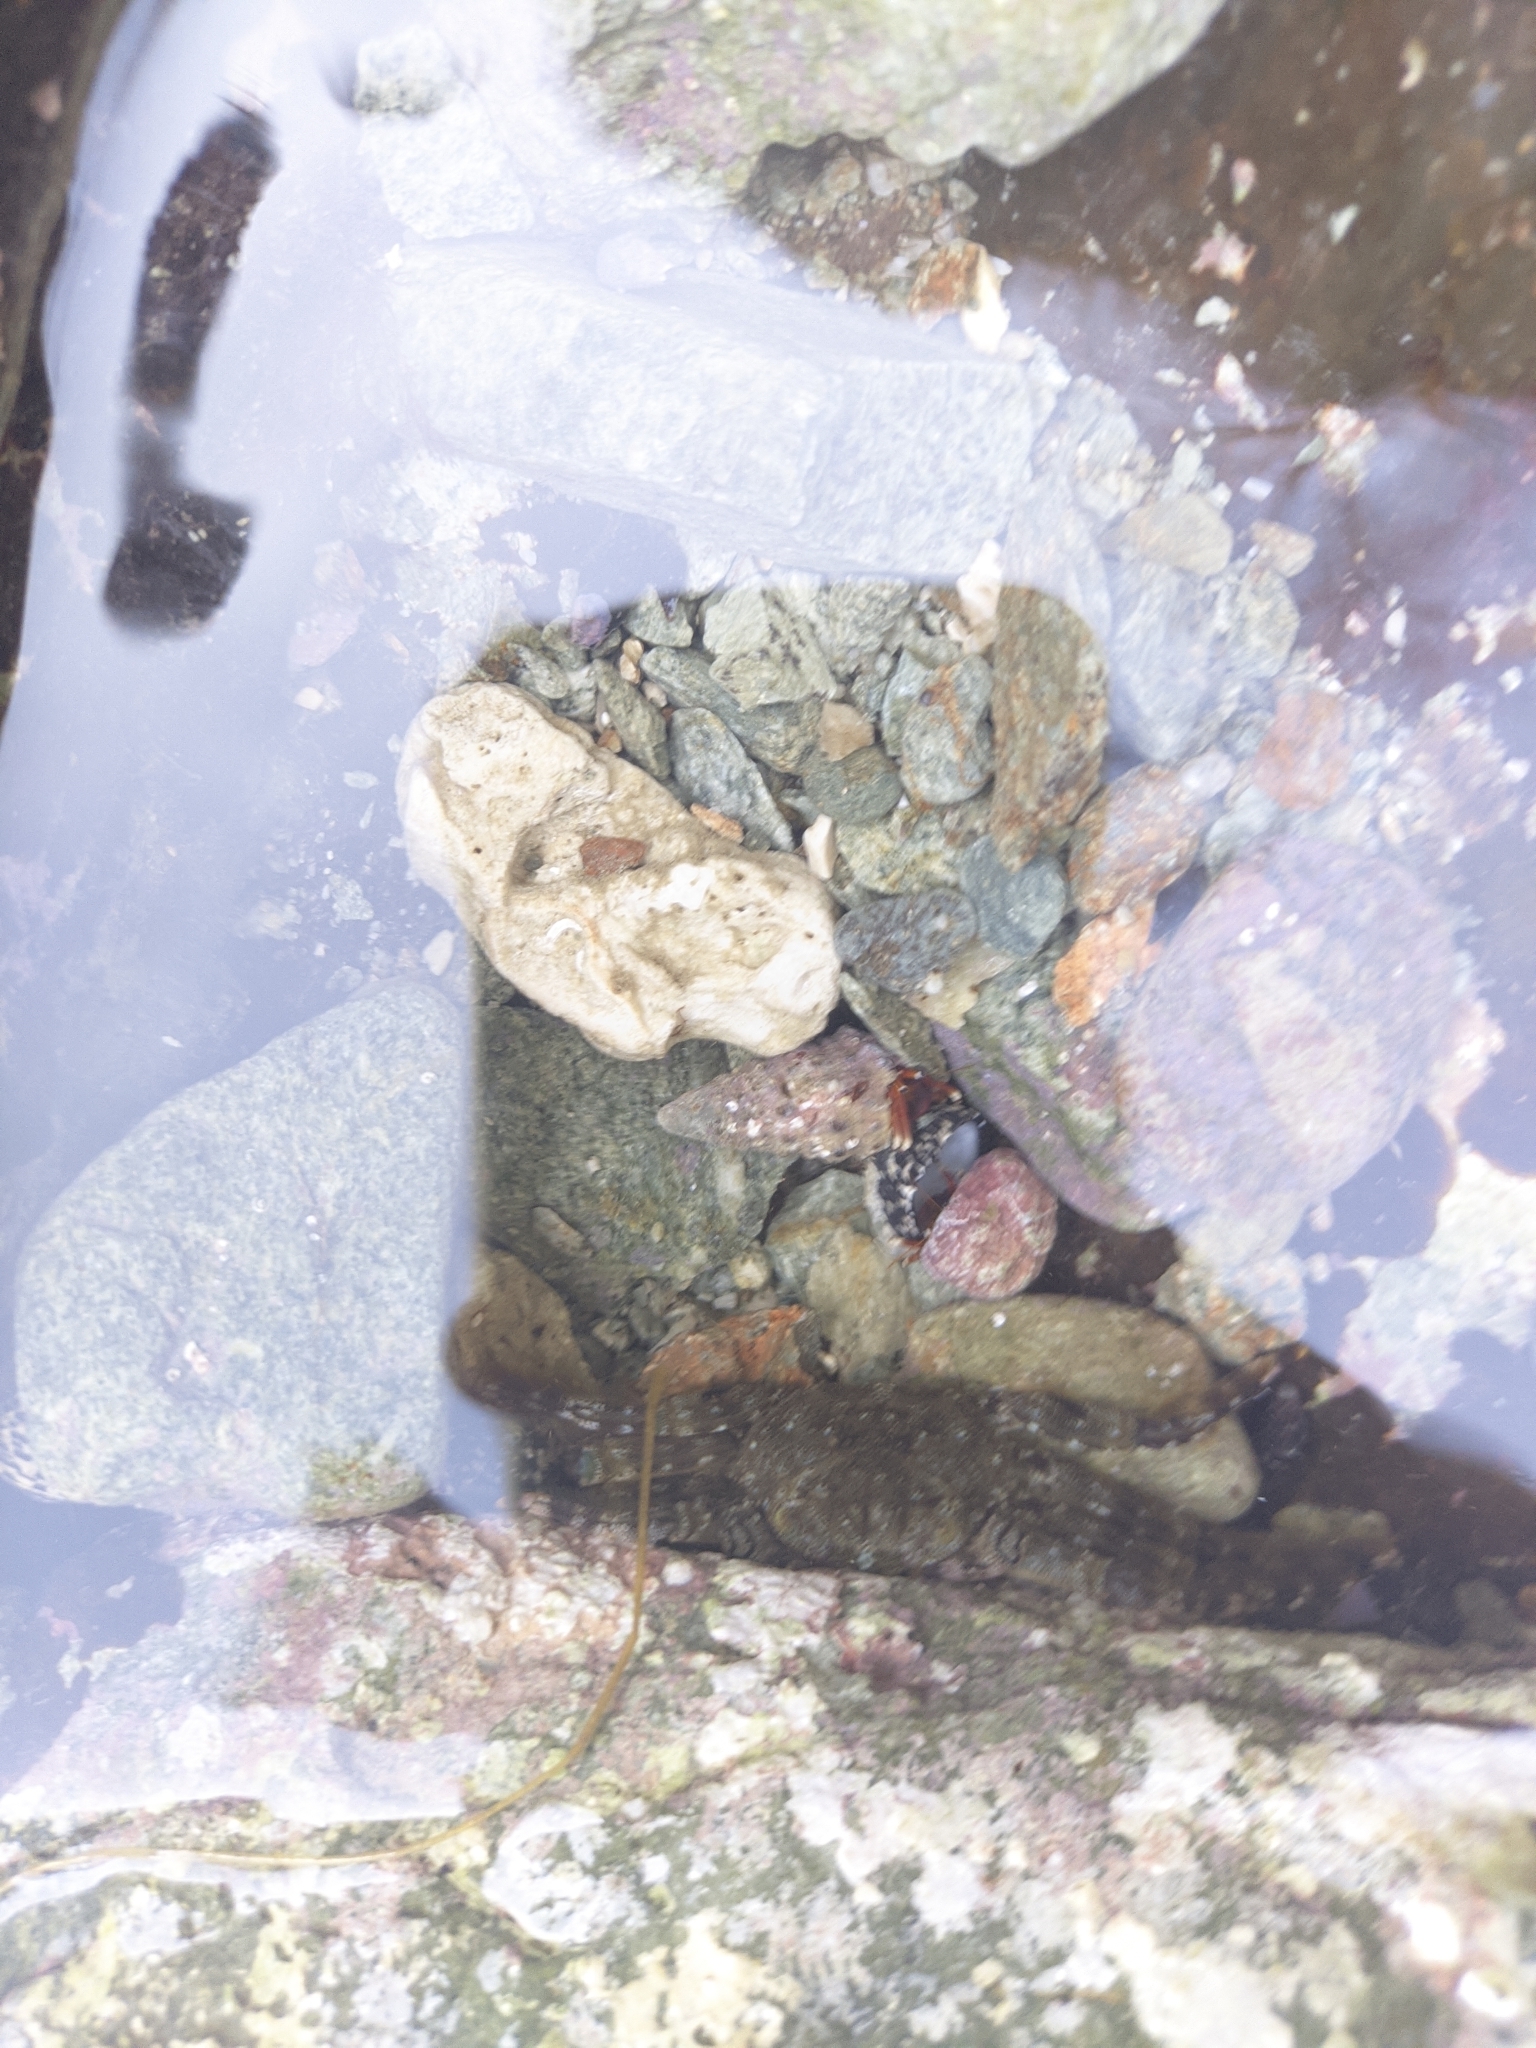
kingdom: Animalia
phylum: Arthropoda
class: Malacostraca
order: Decapoda
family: Plagusiidae
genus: Plagusia
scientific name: Plagusia depressa
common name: Flattened crab
